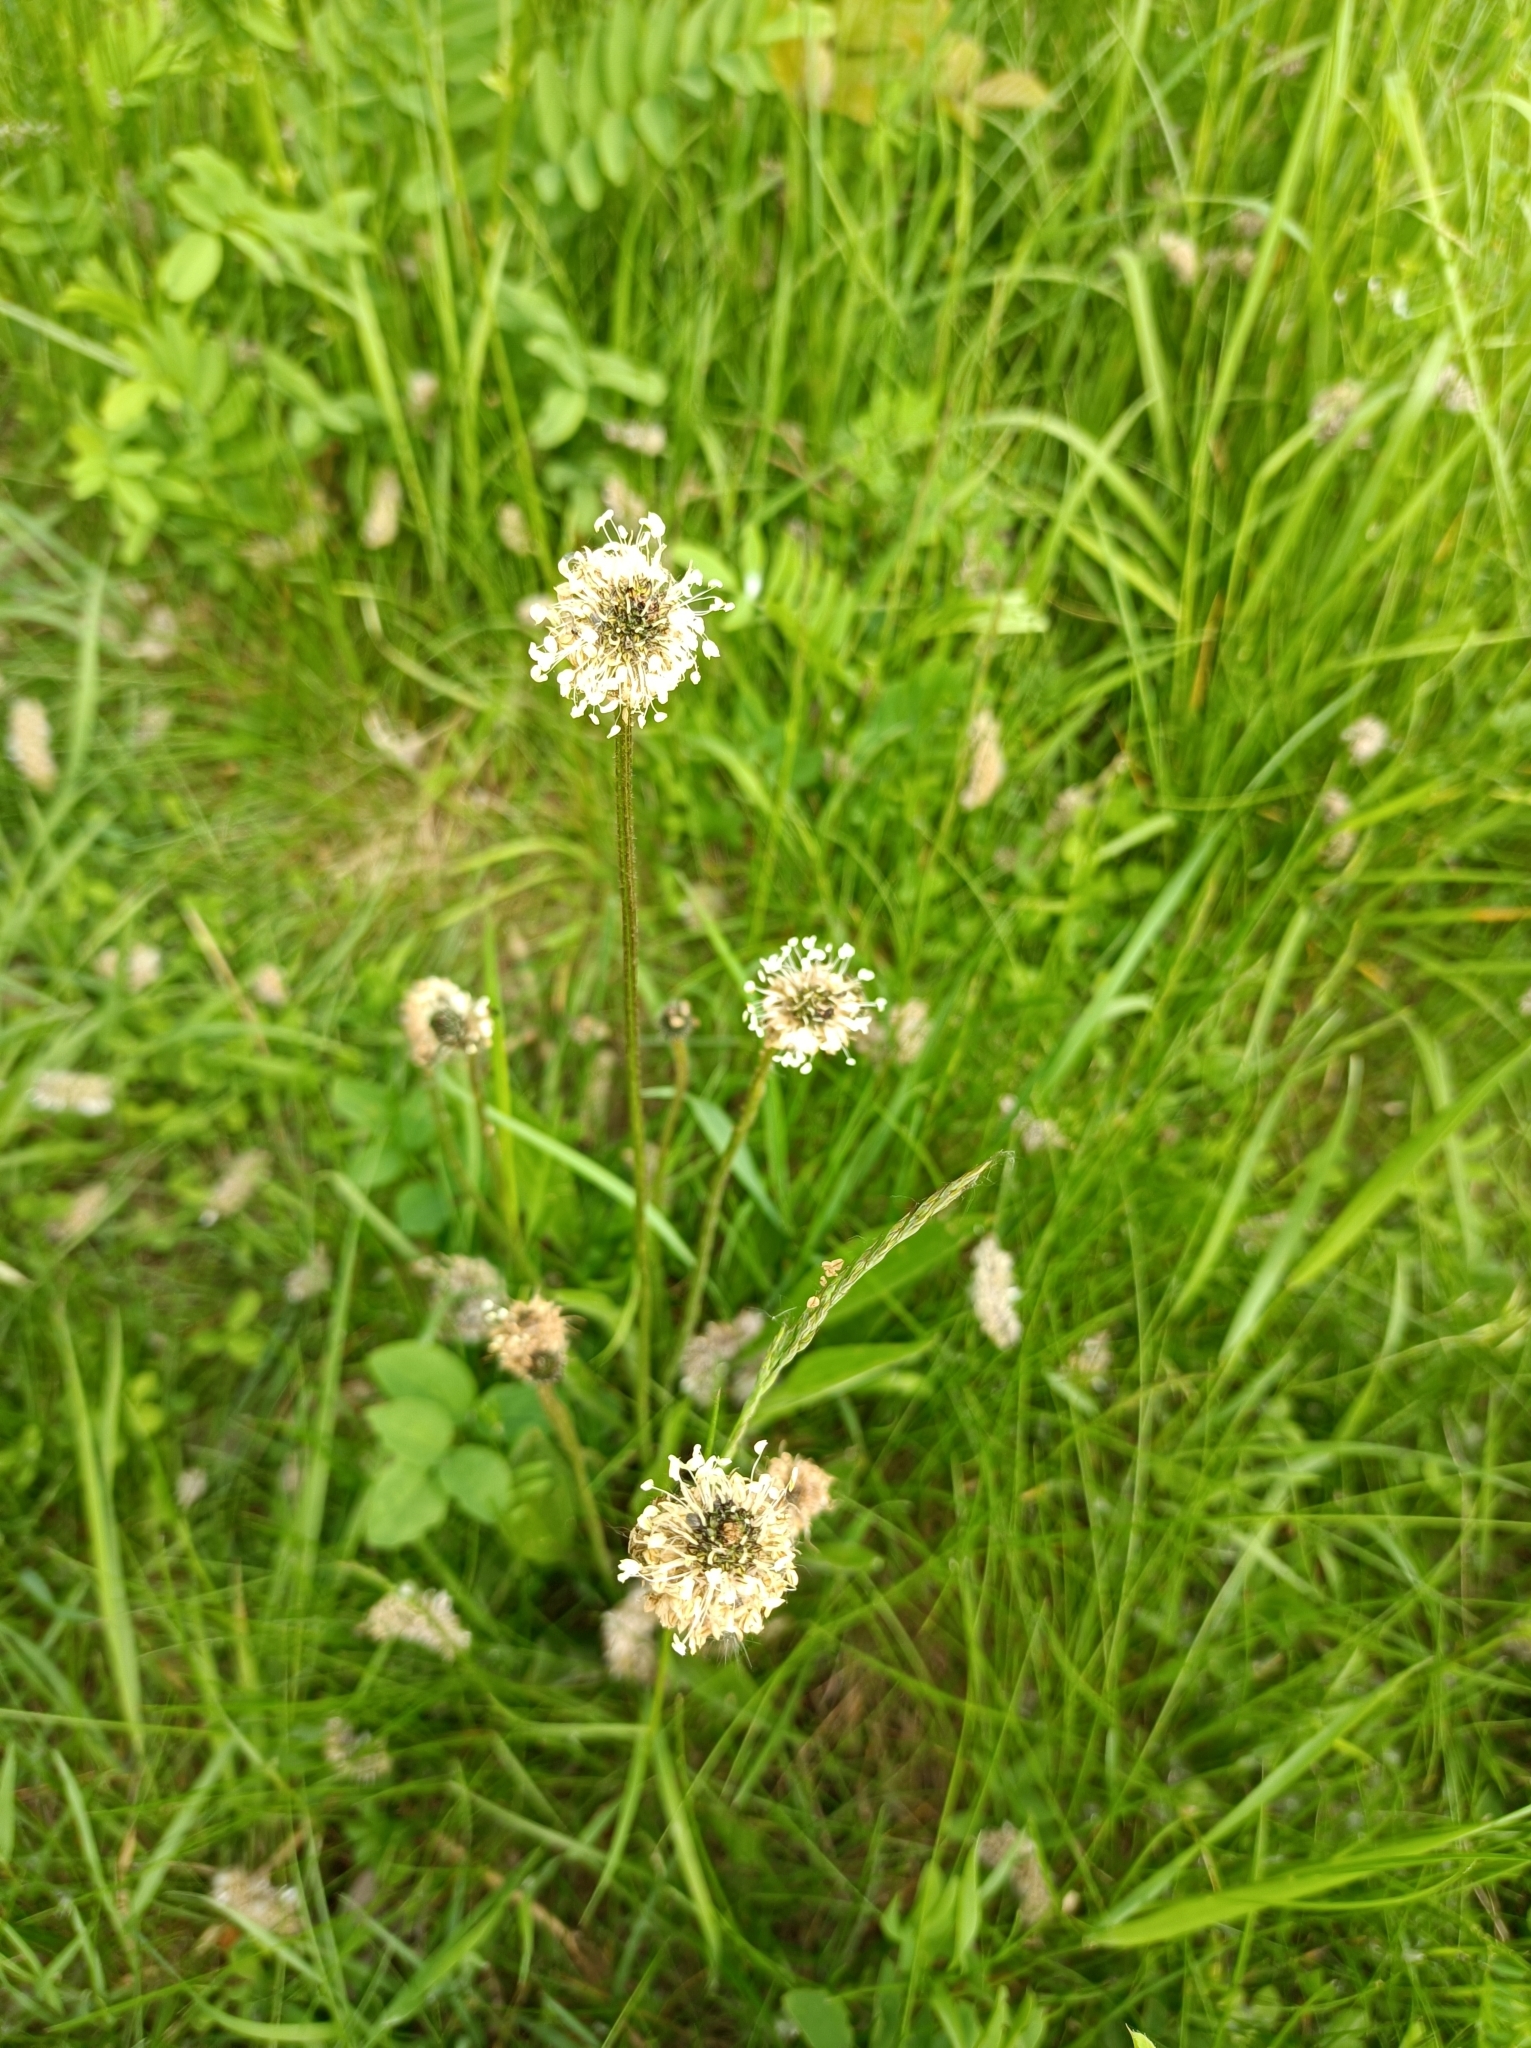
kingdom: Plantae
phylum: Tracheophyta
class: Magnoliopsida
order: Lamiales
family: Plantaginaceae
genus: Plantago
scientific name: Plantago lanceolata
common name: Ribwort plantain
